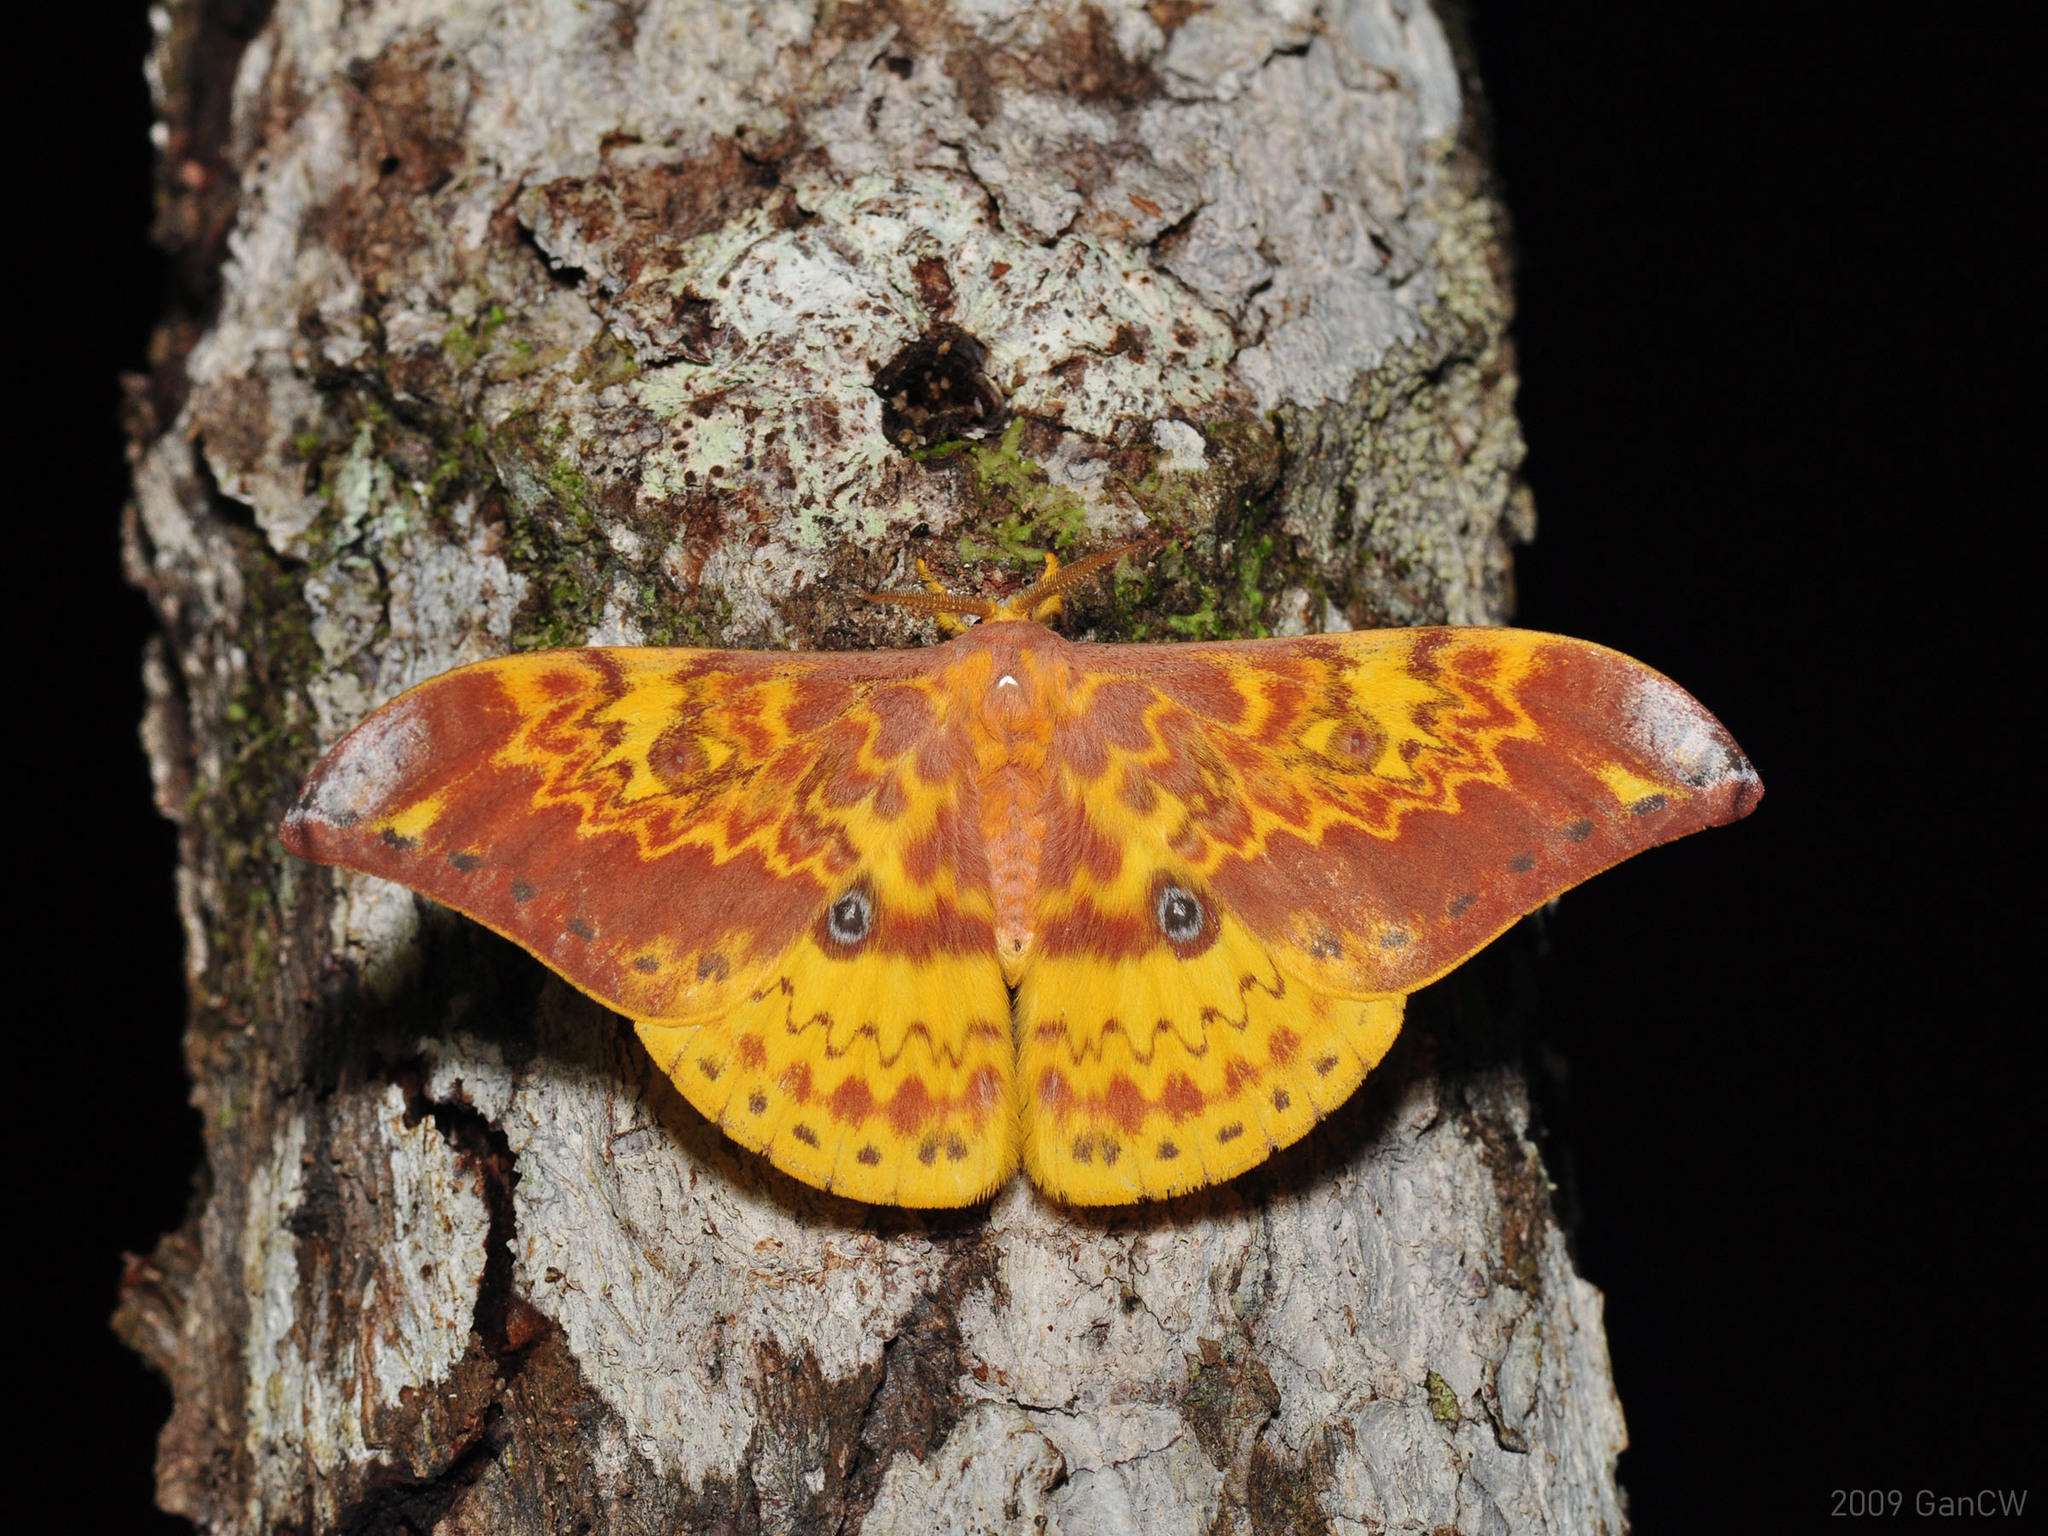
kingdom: Animalia
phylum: Arthropoda
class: Insecta
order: Lepidoptera
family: Saturniidae
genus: Lemaireia
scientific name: Lemaireia loepoides
